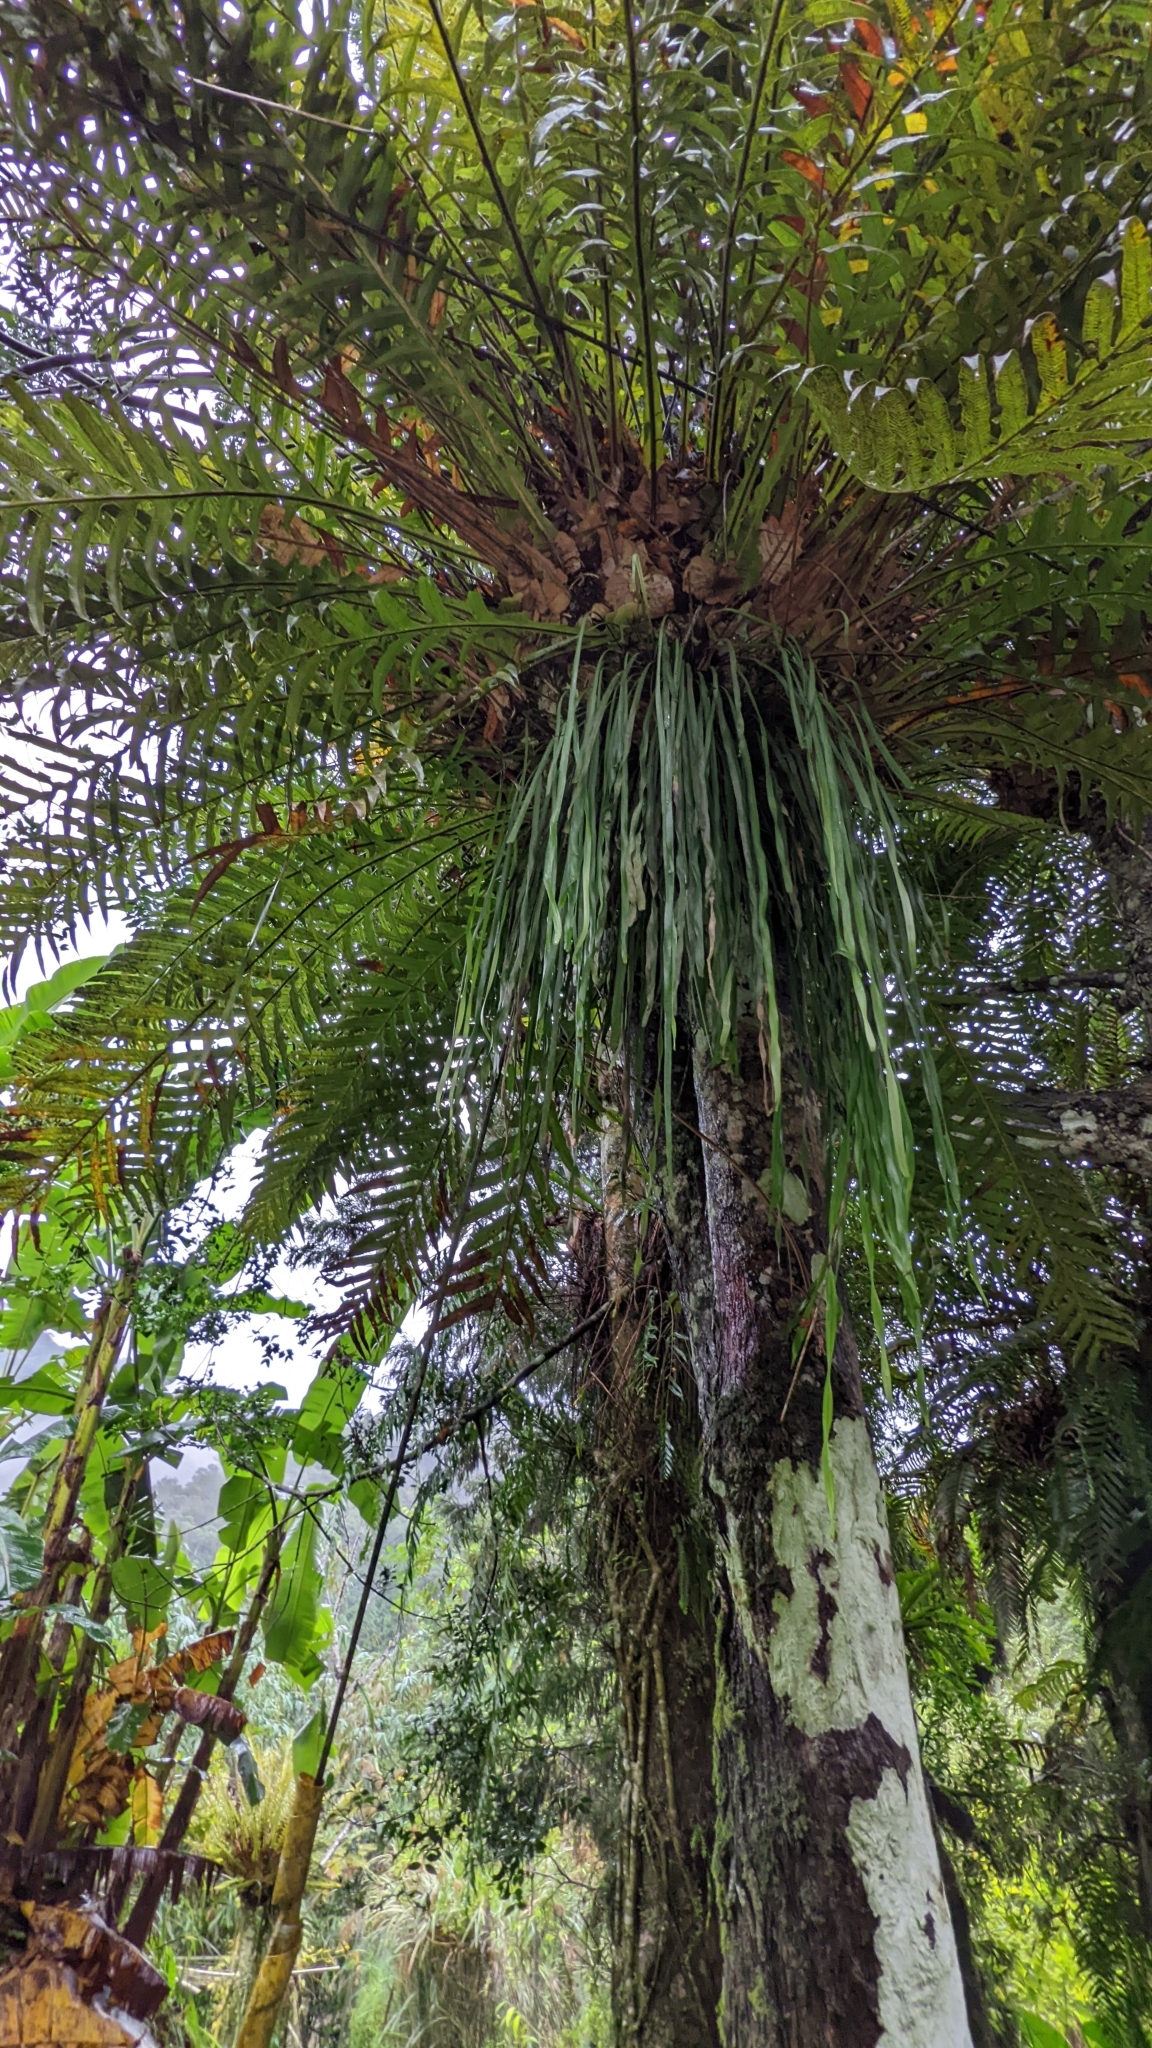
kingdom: Plantae
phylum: Tracheophyta
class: Polypodiopsida
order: Polypodiales
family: Pteridaceae
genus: Haplopteris
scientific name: Haplopteris elongata
